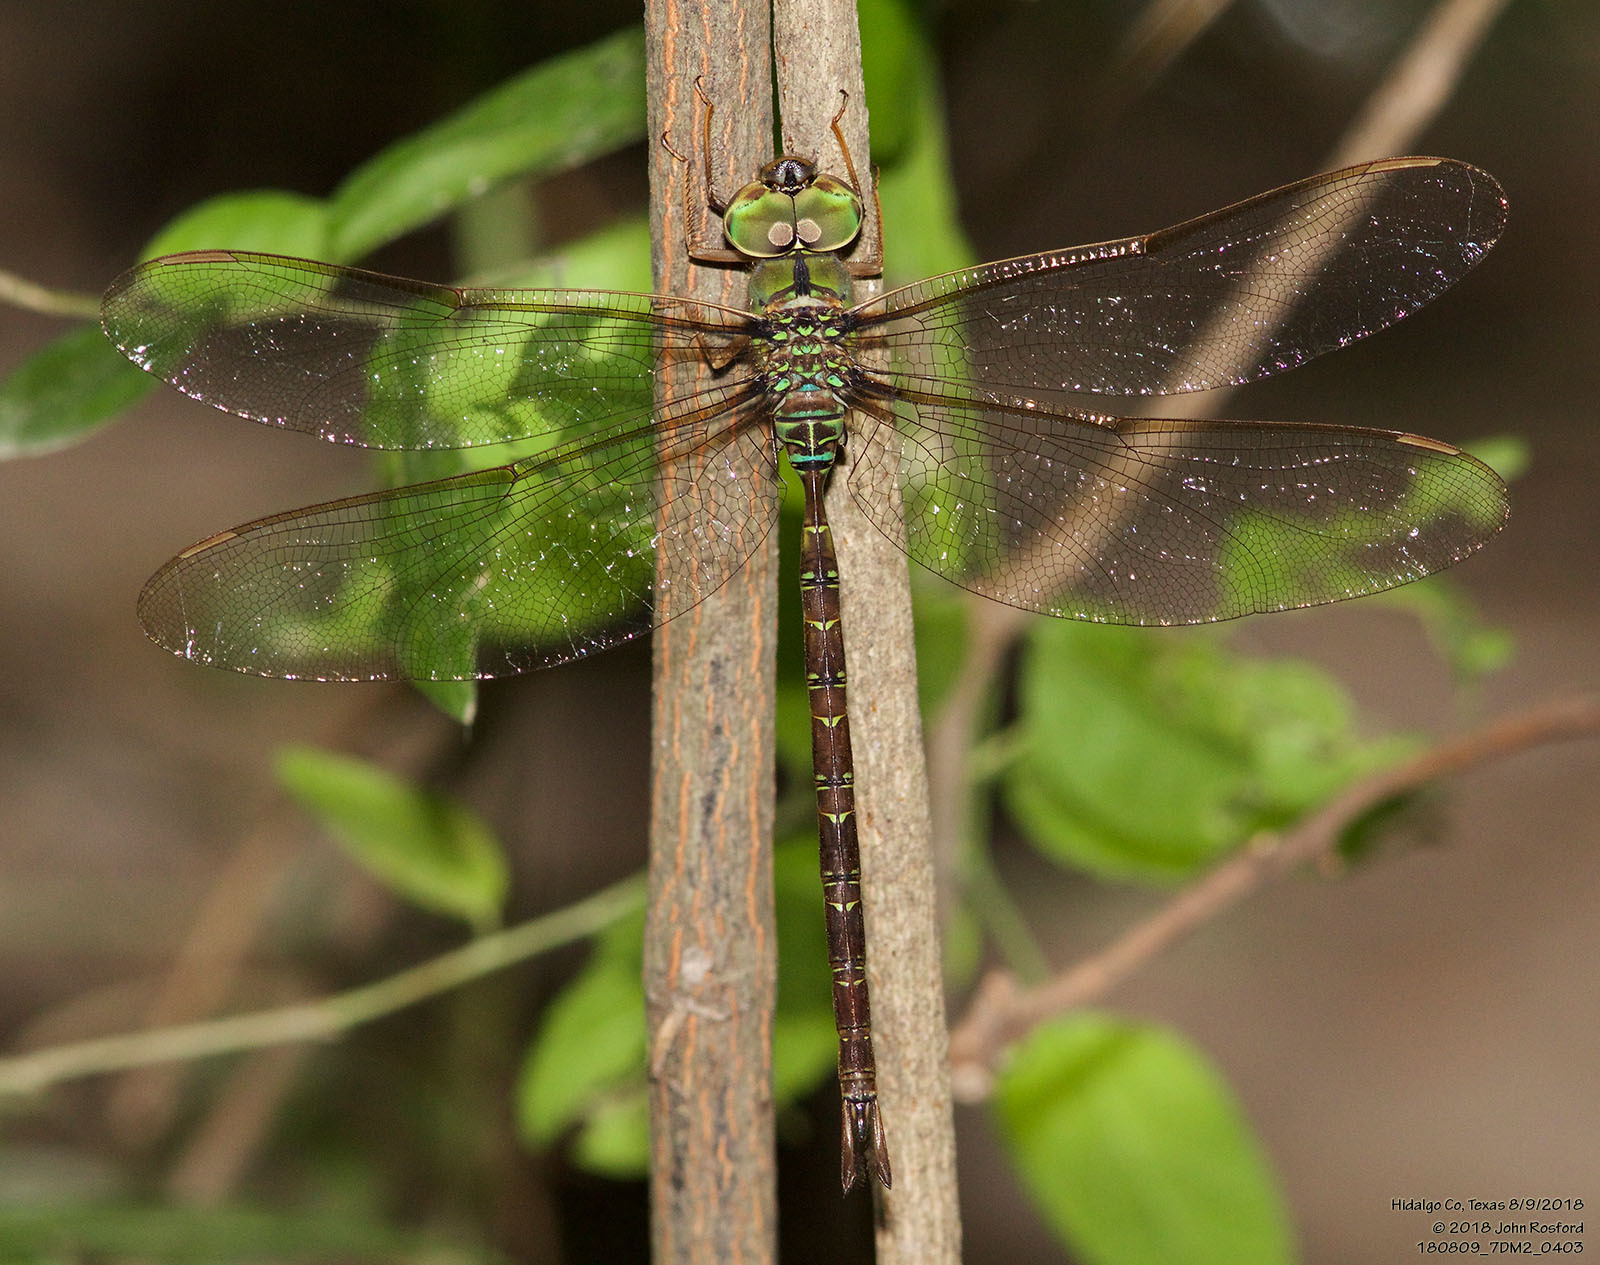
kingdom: Animalia
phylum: Arthropoda
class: Insecta
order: Odonata
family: Aeshnidae
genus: Gynacantha
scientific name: Gynacantha mexicana
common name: Bar-sided darner
